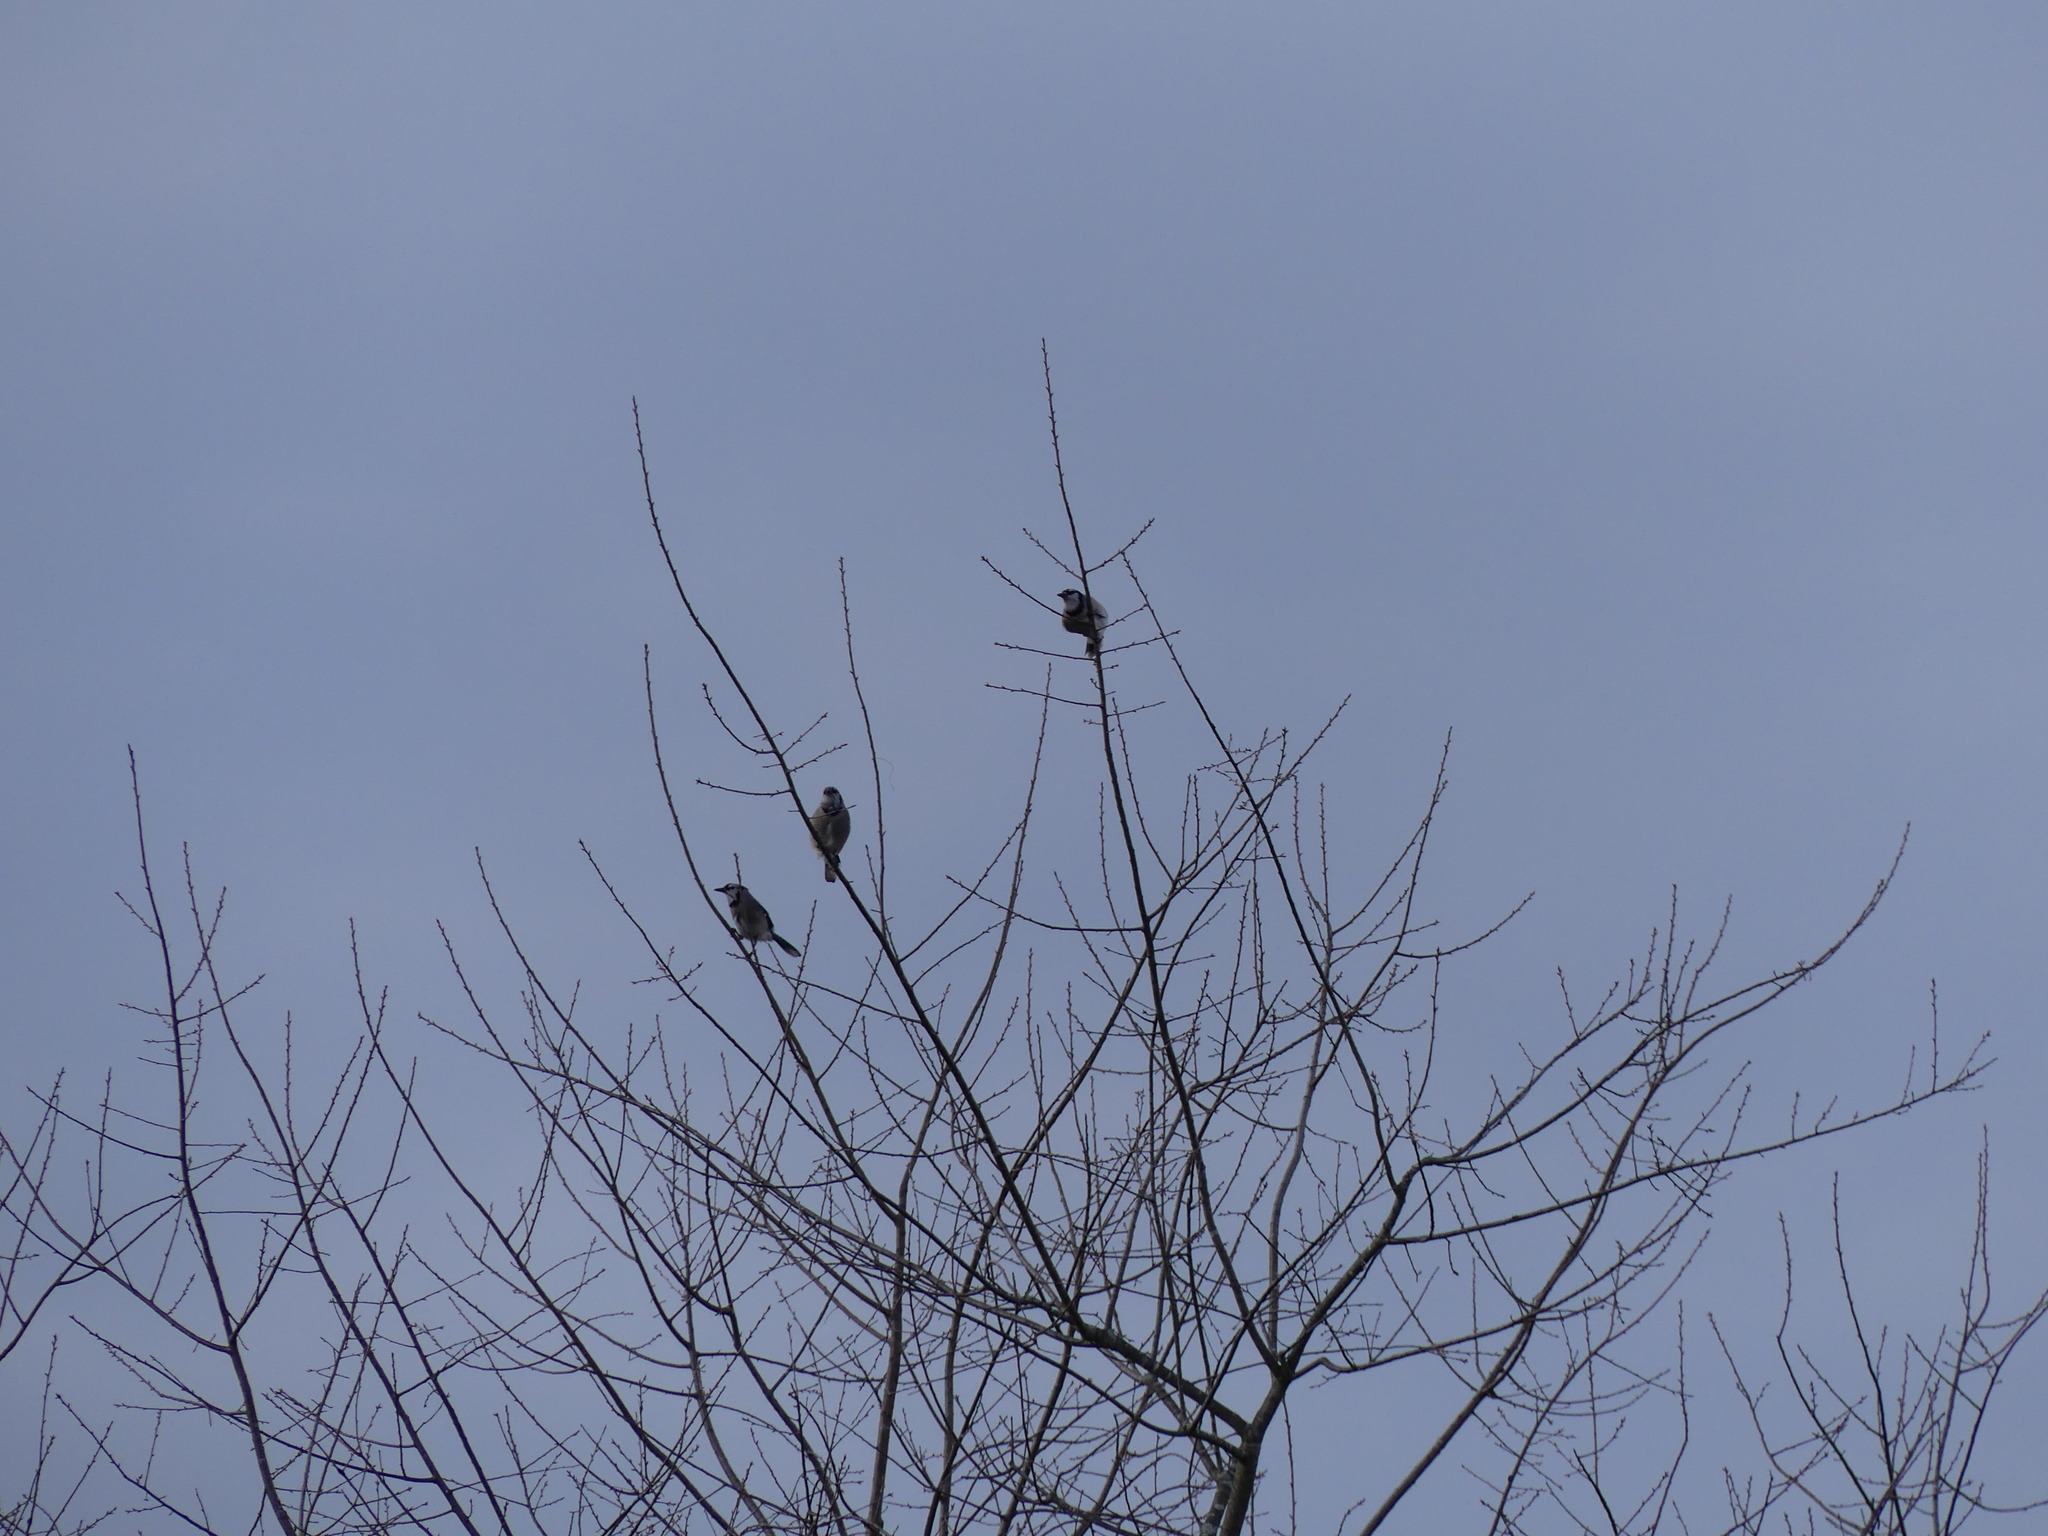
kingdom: Animalia
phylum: Chordata
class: Aves
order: Passeriformes
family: Corvidae
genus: Cyanocitta
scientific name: Cyanocitta cristata
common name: Blue jay
